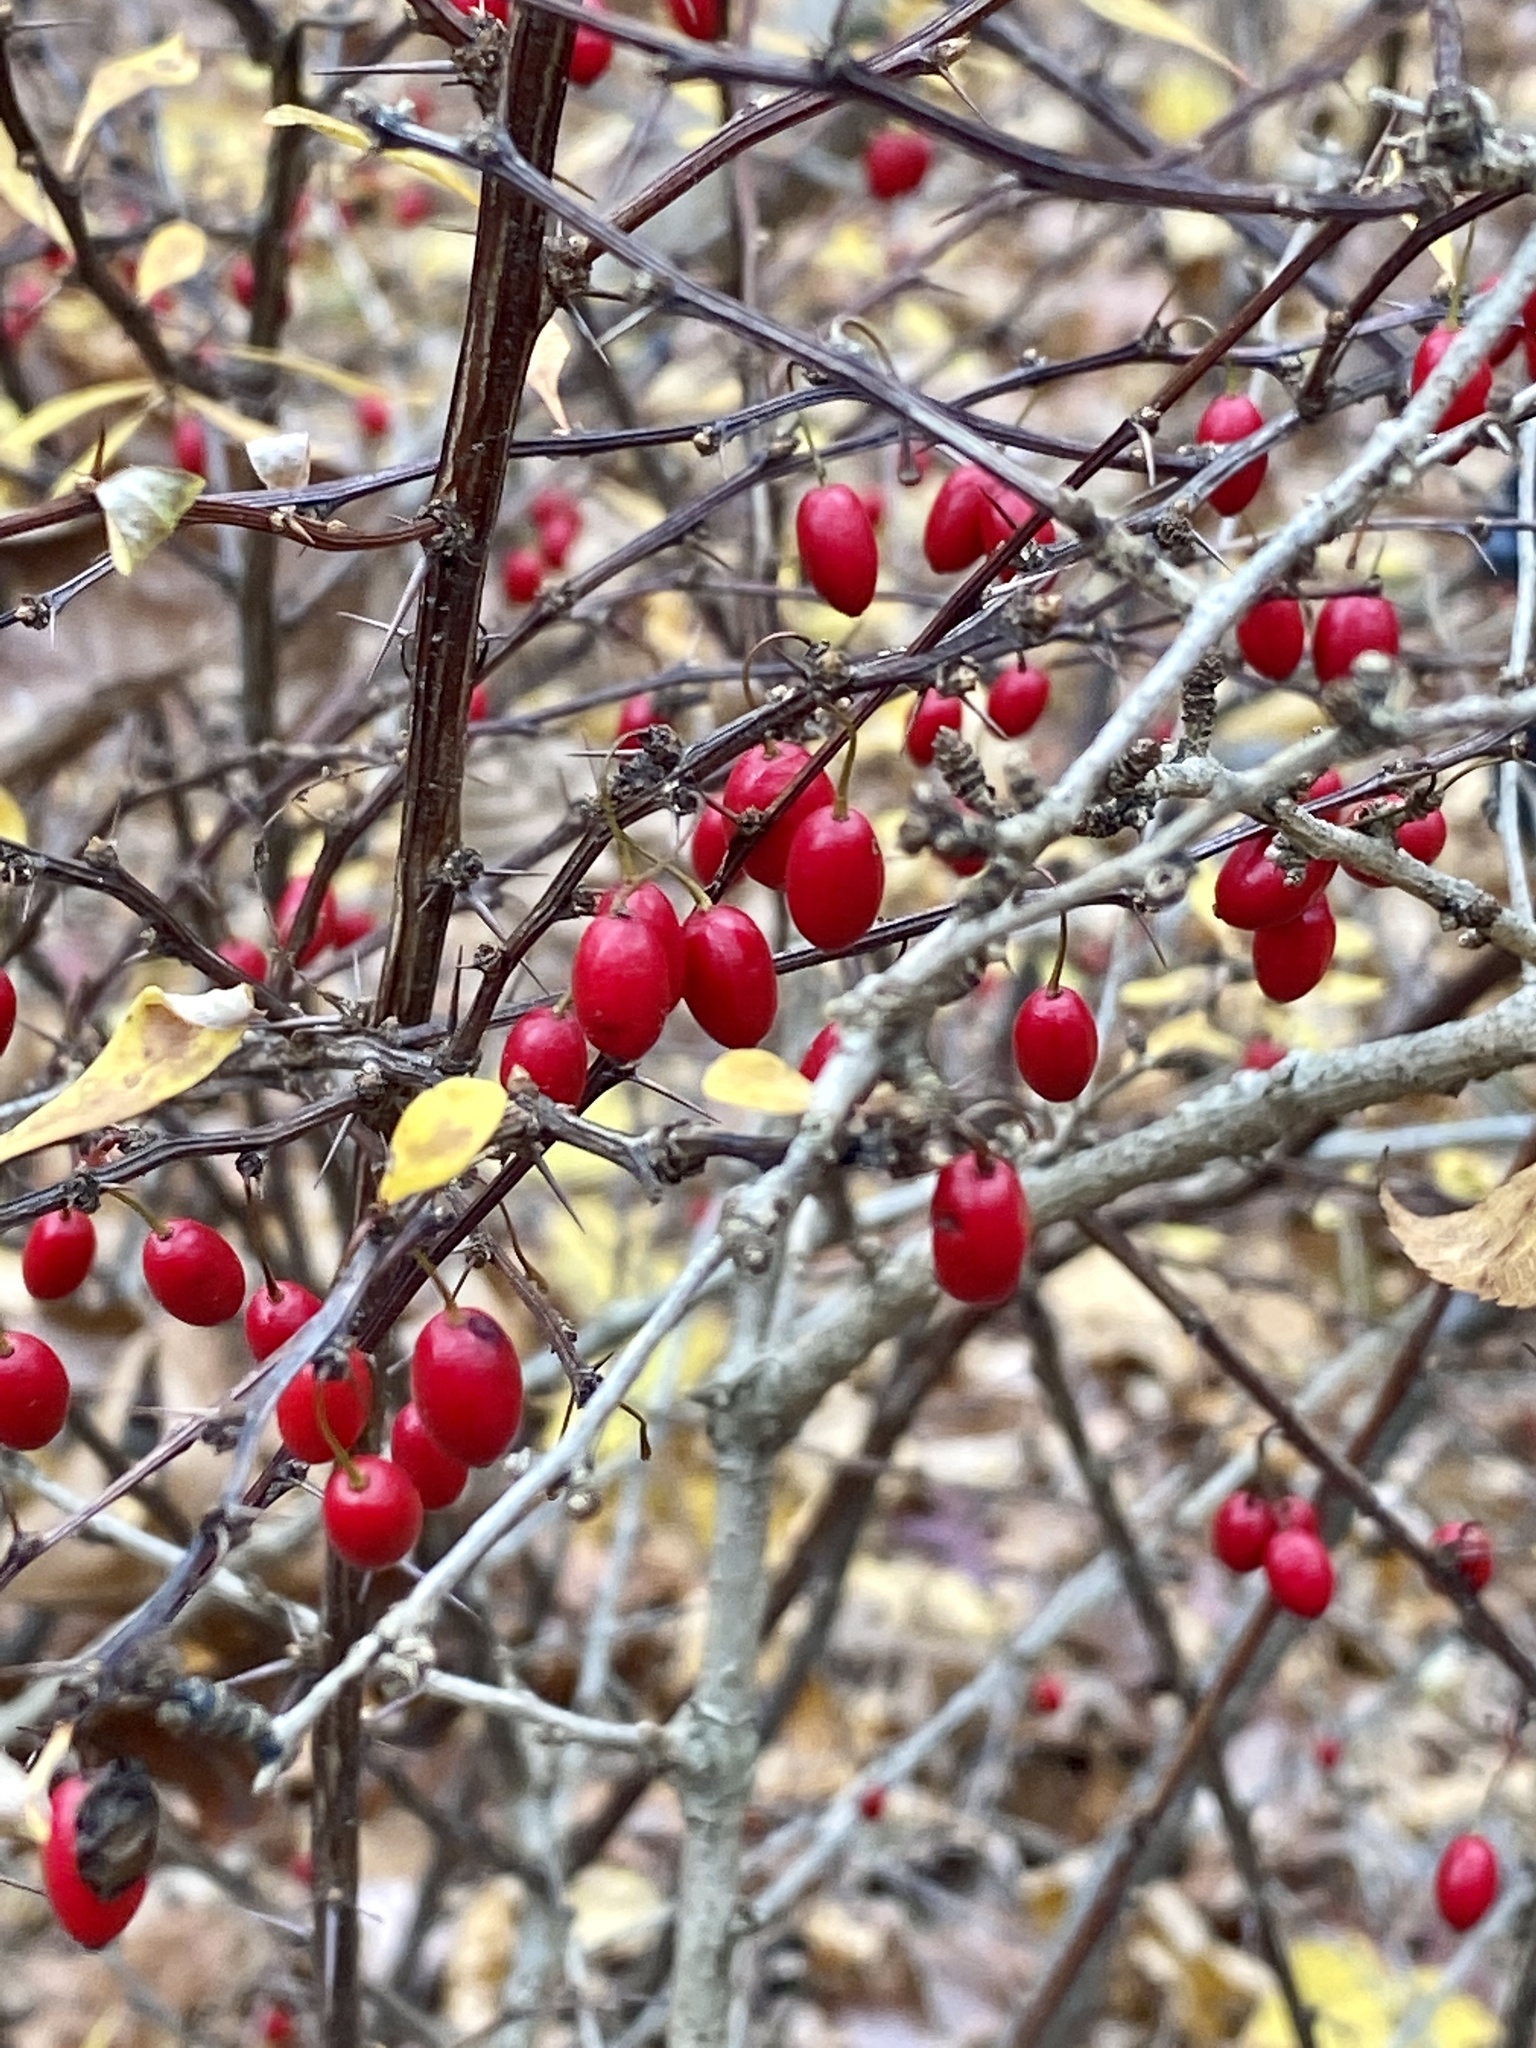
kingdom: Plantae
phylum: Tracheophyta
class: Magnoliopsida
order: Ranunculales
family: Berberidaceae
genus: Berberis
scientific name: Berberis thunbergii
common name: Japanese barberry
